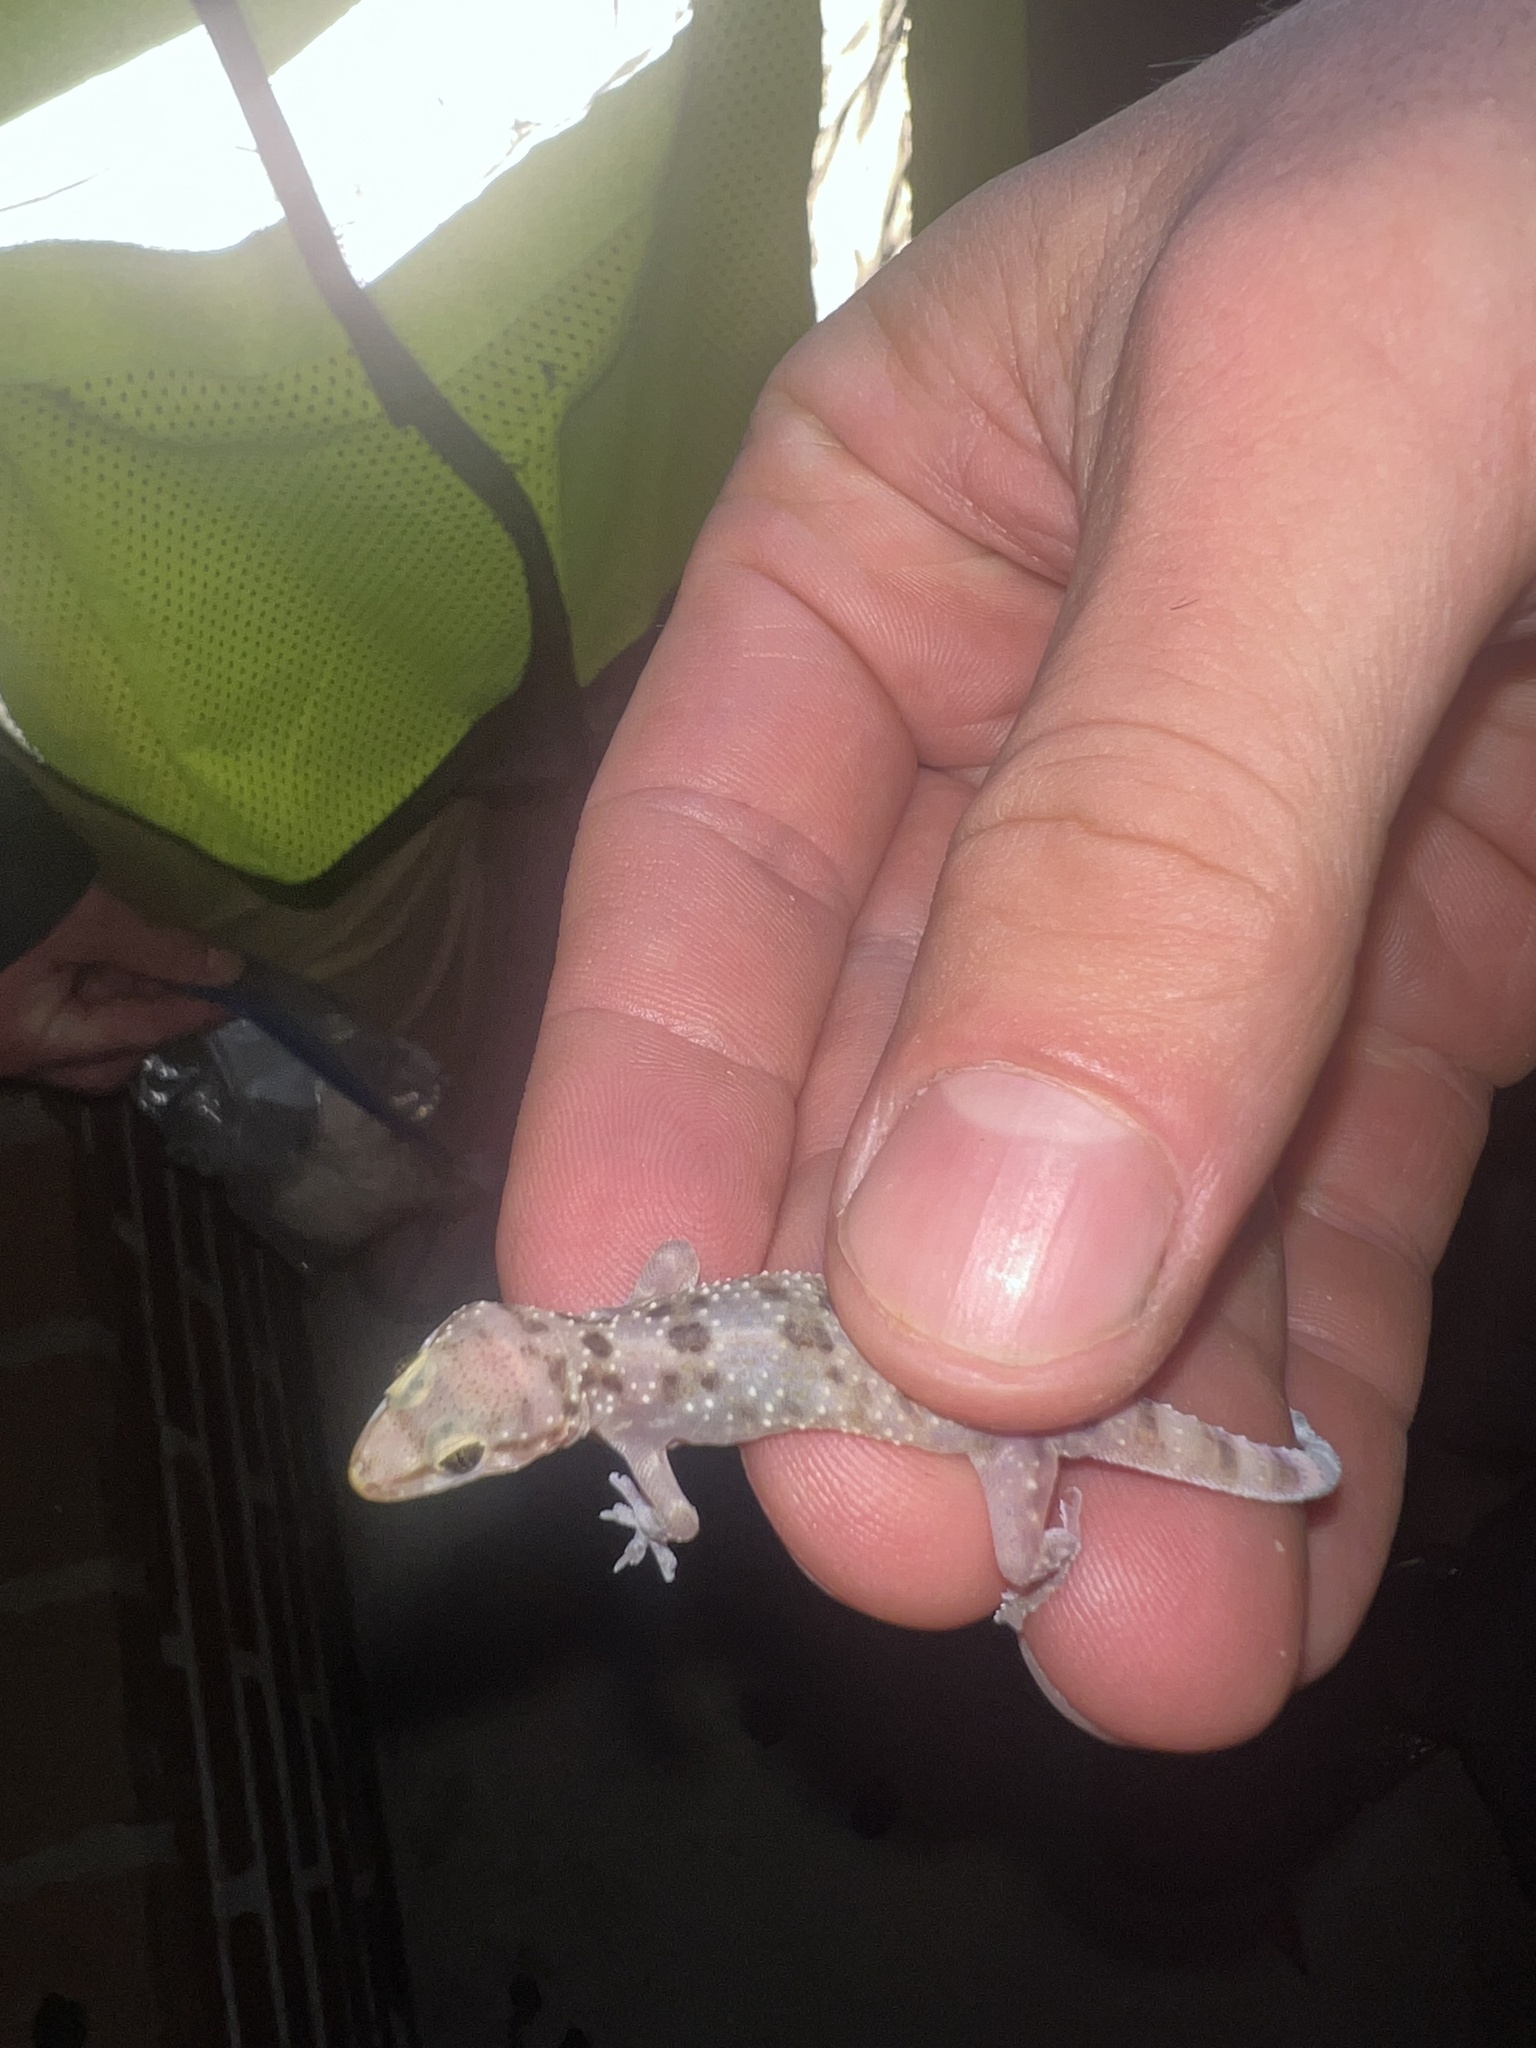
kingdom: Animalia
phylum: Chordata
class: Squamata
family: Gekkonidae
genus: Hemidactylus
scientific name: Hemidactylus turcicus
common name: Turkish gecko
